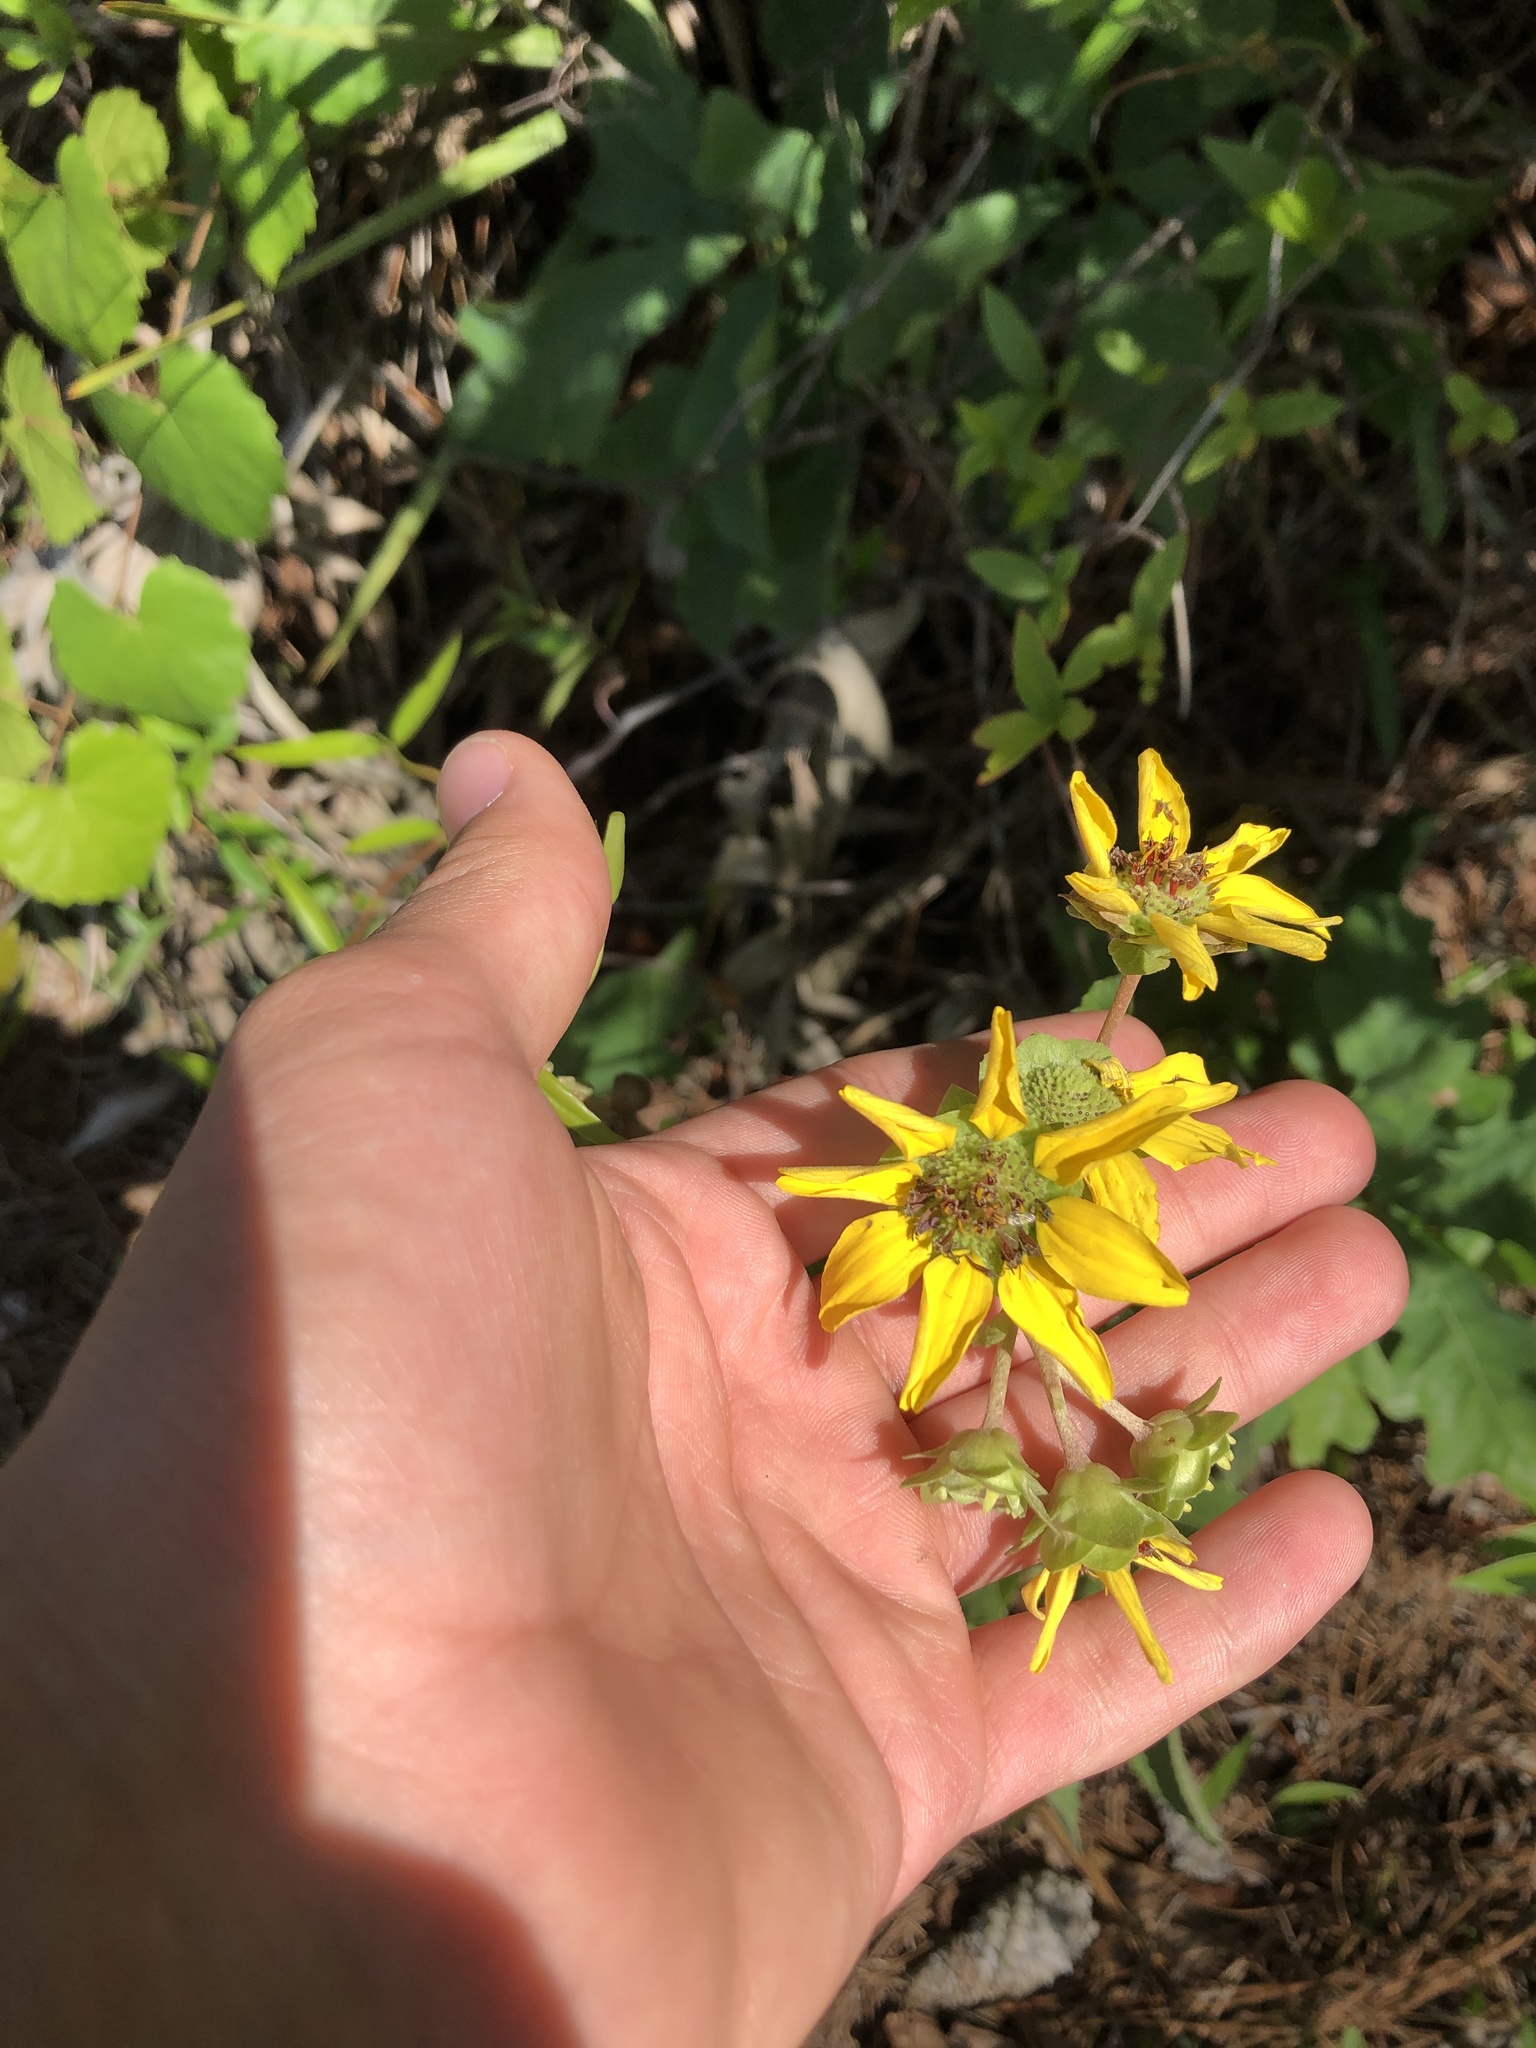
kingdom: Plantae
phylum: Tracheophyta
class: Magnoliopsida
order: Asterales
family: Asteraceae
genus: Berlandiera
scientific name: Berlandiera pumila
